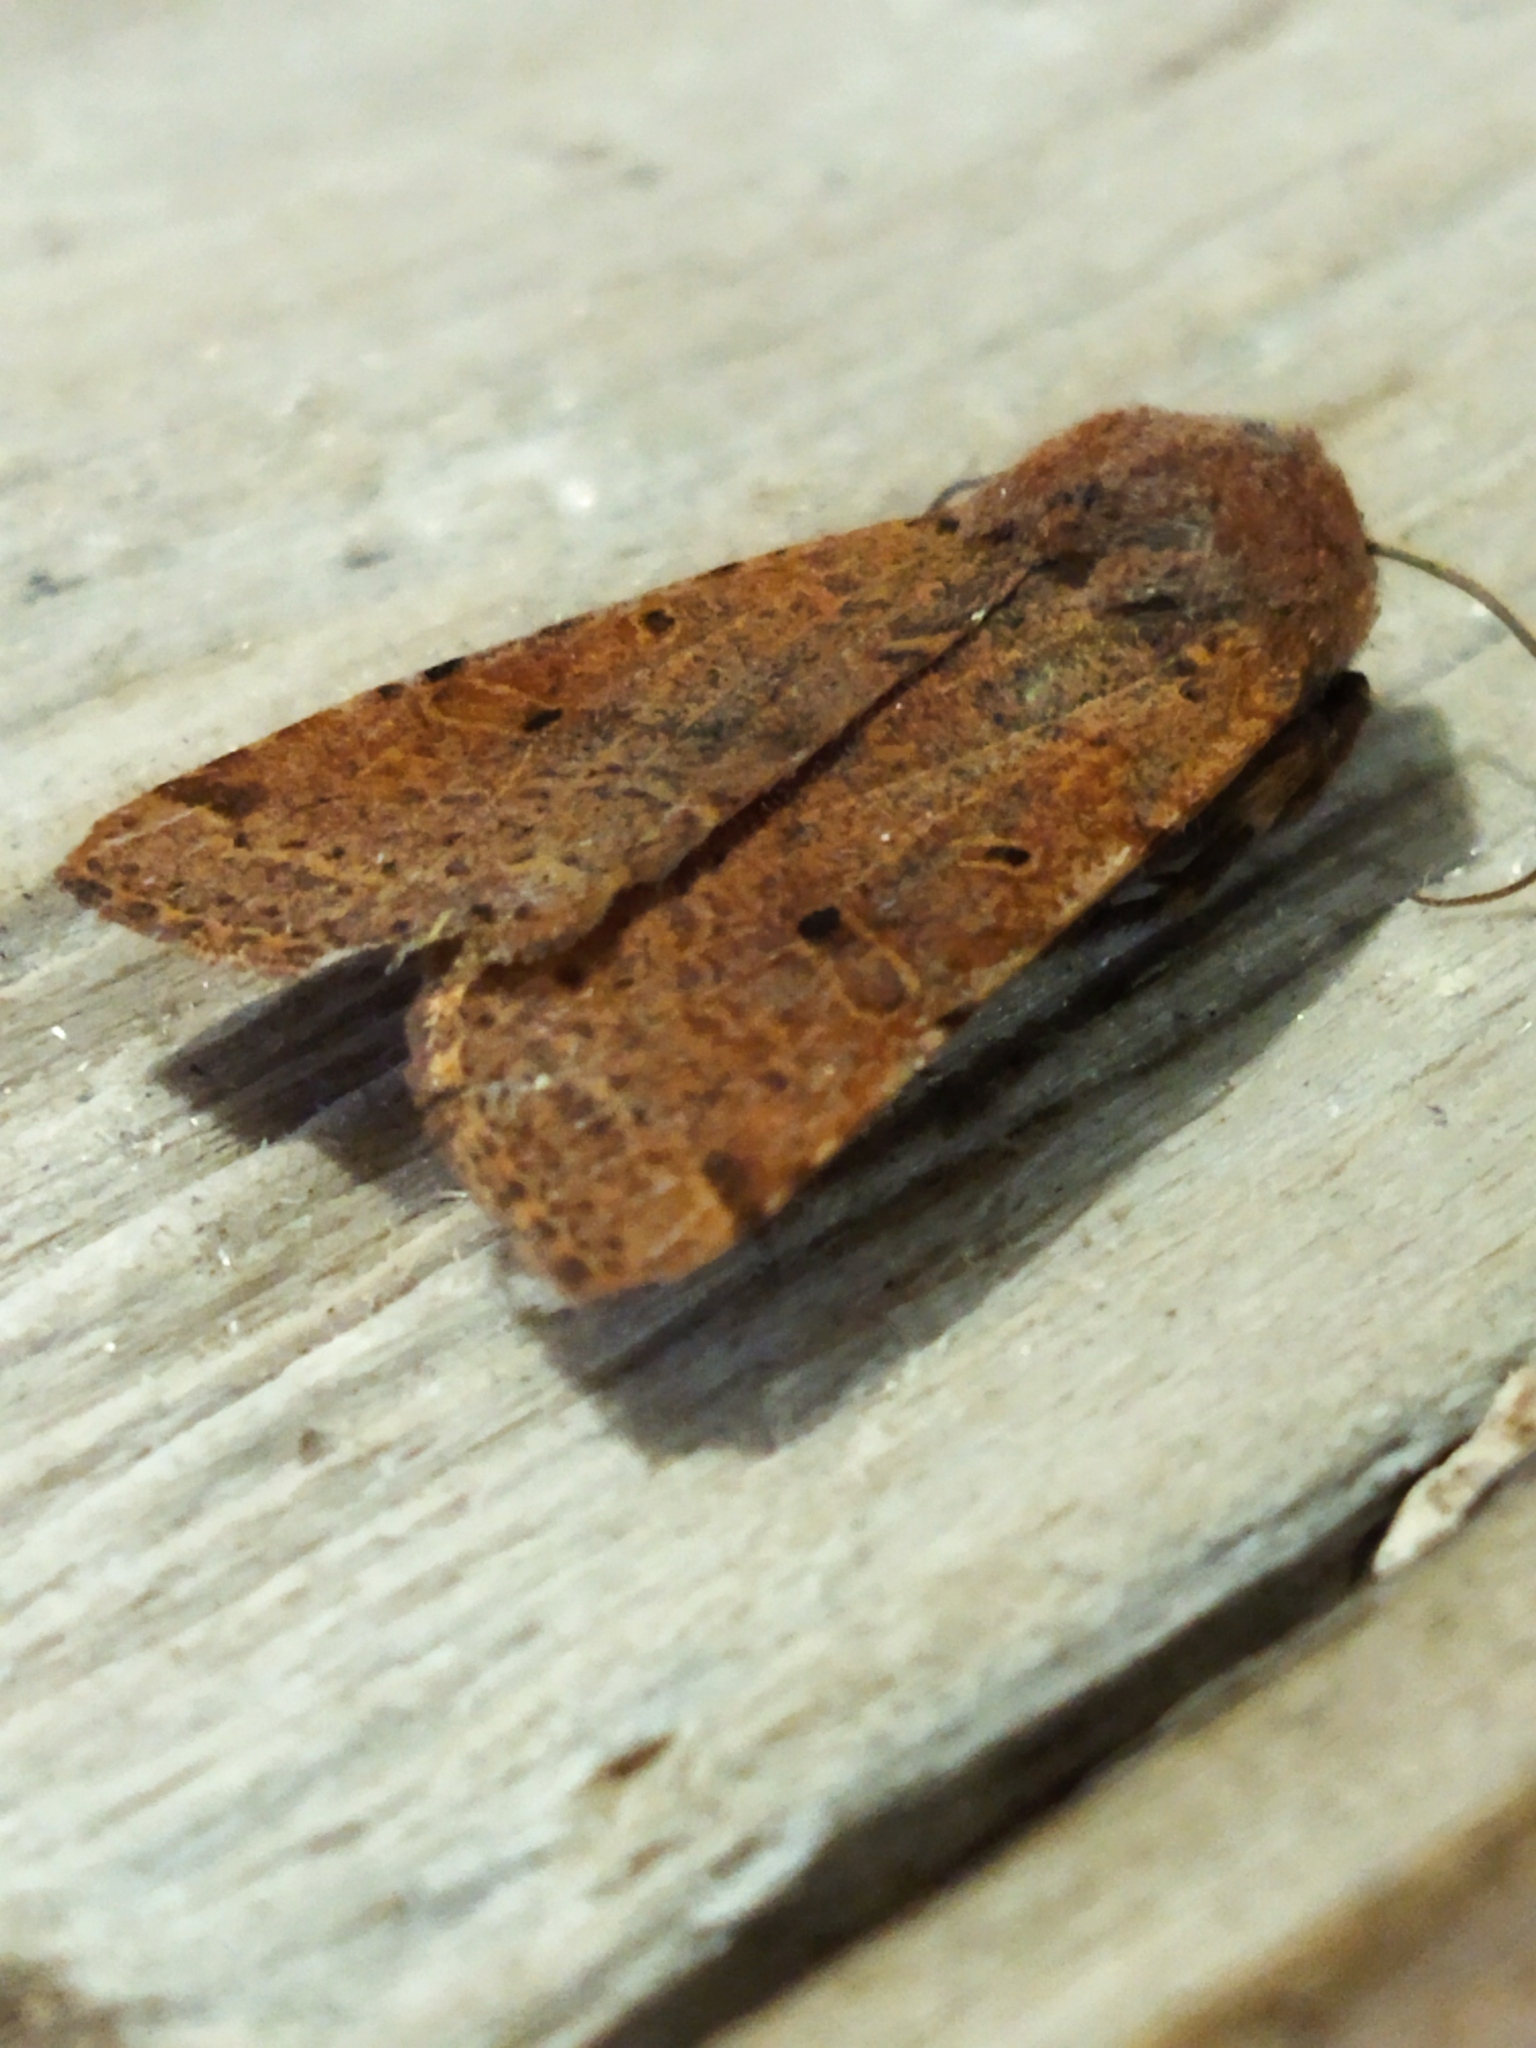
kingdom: Animalia
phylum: Arthropoda
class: Insecta
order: Lepidoptera
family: Noctuidae
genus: Agrochola
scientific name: Agrochola lychnidis
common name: Beaded chestnut
